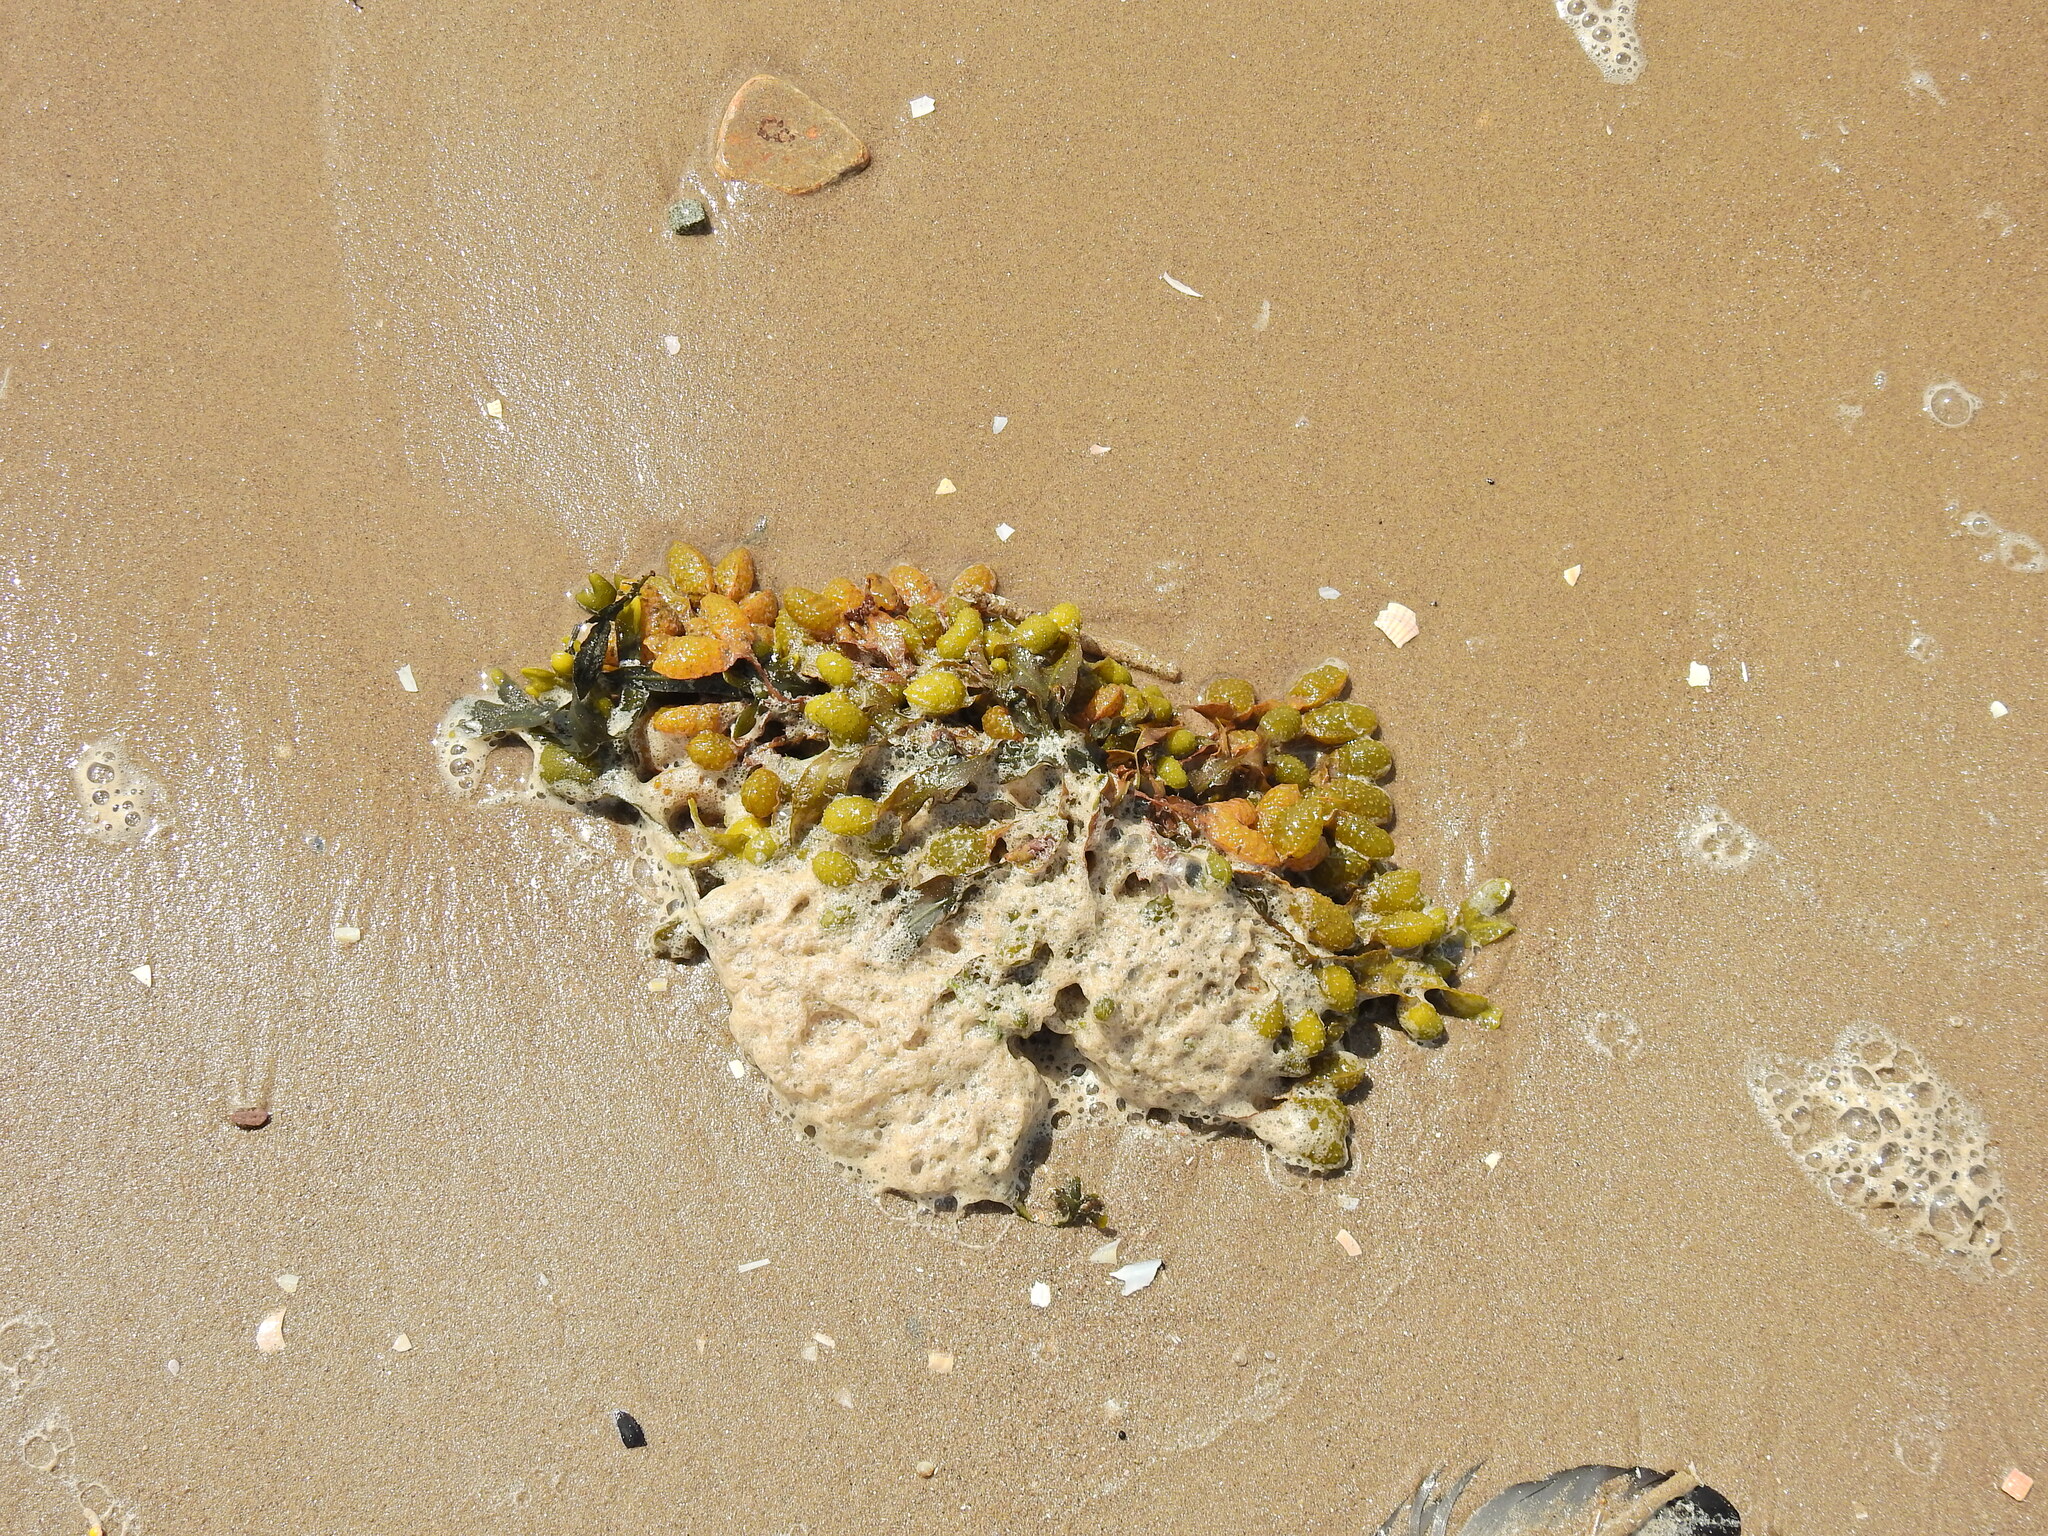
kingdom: Chromista
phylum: Ochrophyta
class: Phaeophyceae
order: Fucales
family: Fucaceae
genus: Fucus
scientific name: Fucus spiralis
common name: Spiral wrack
